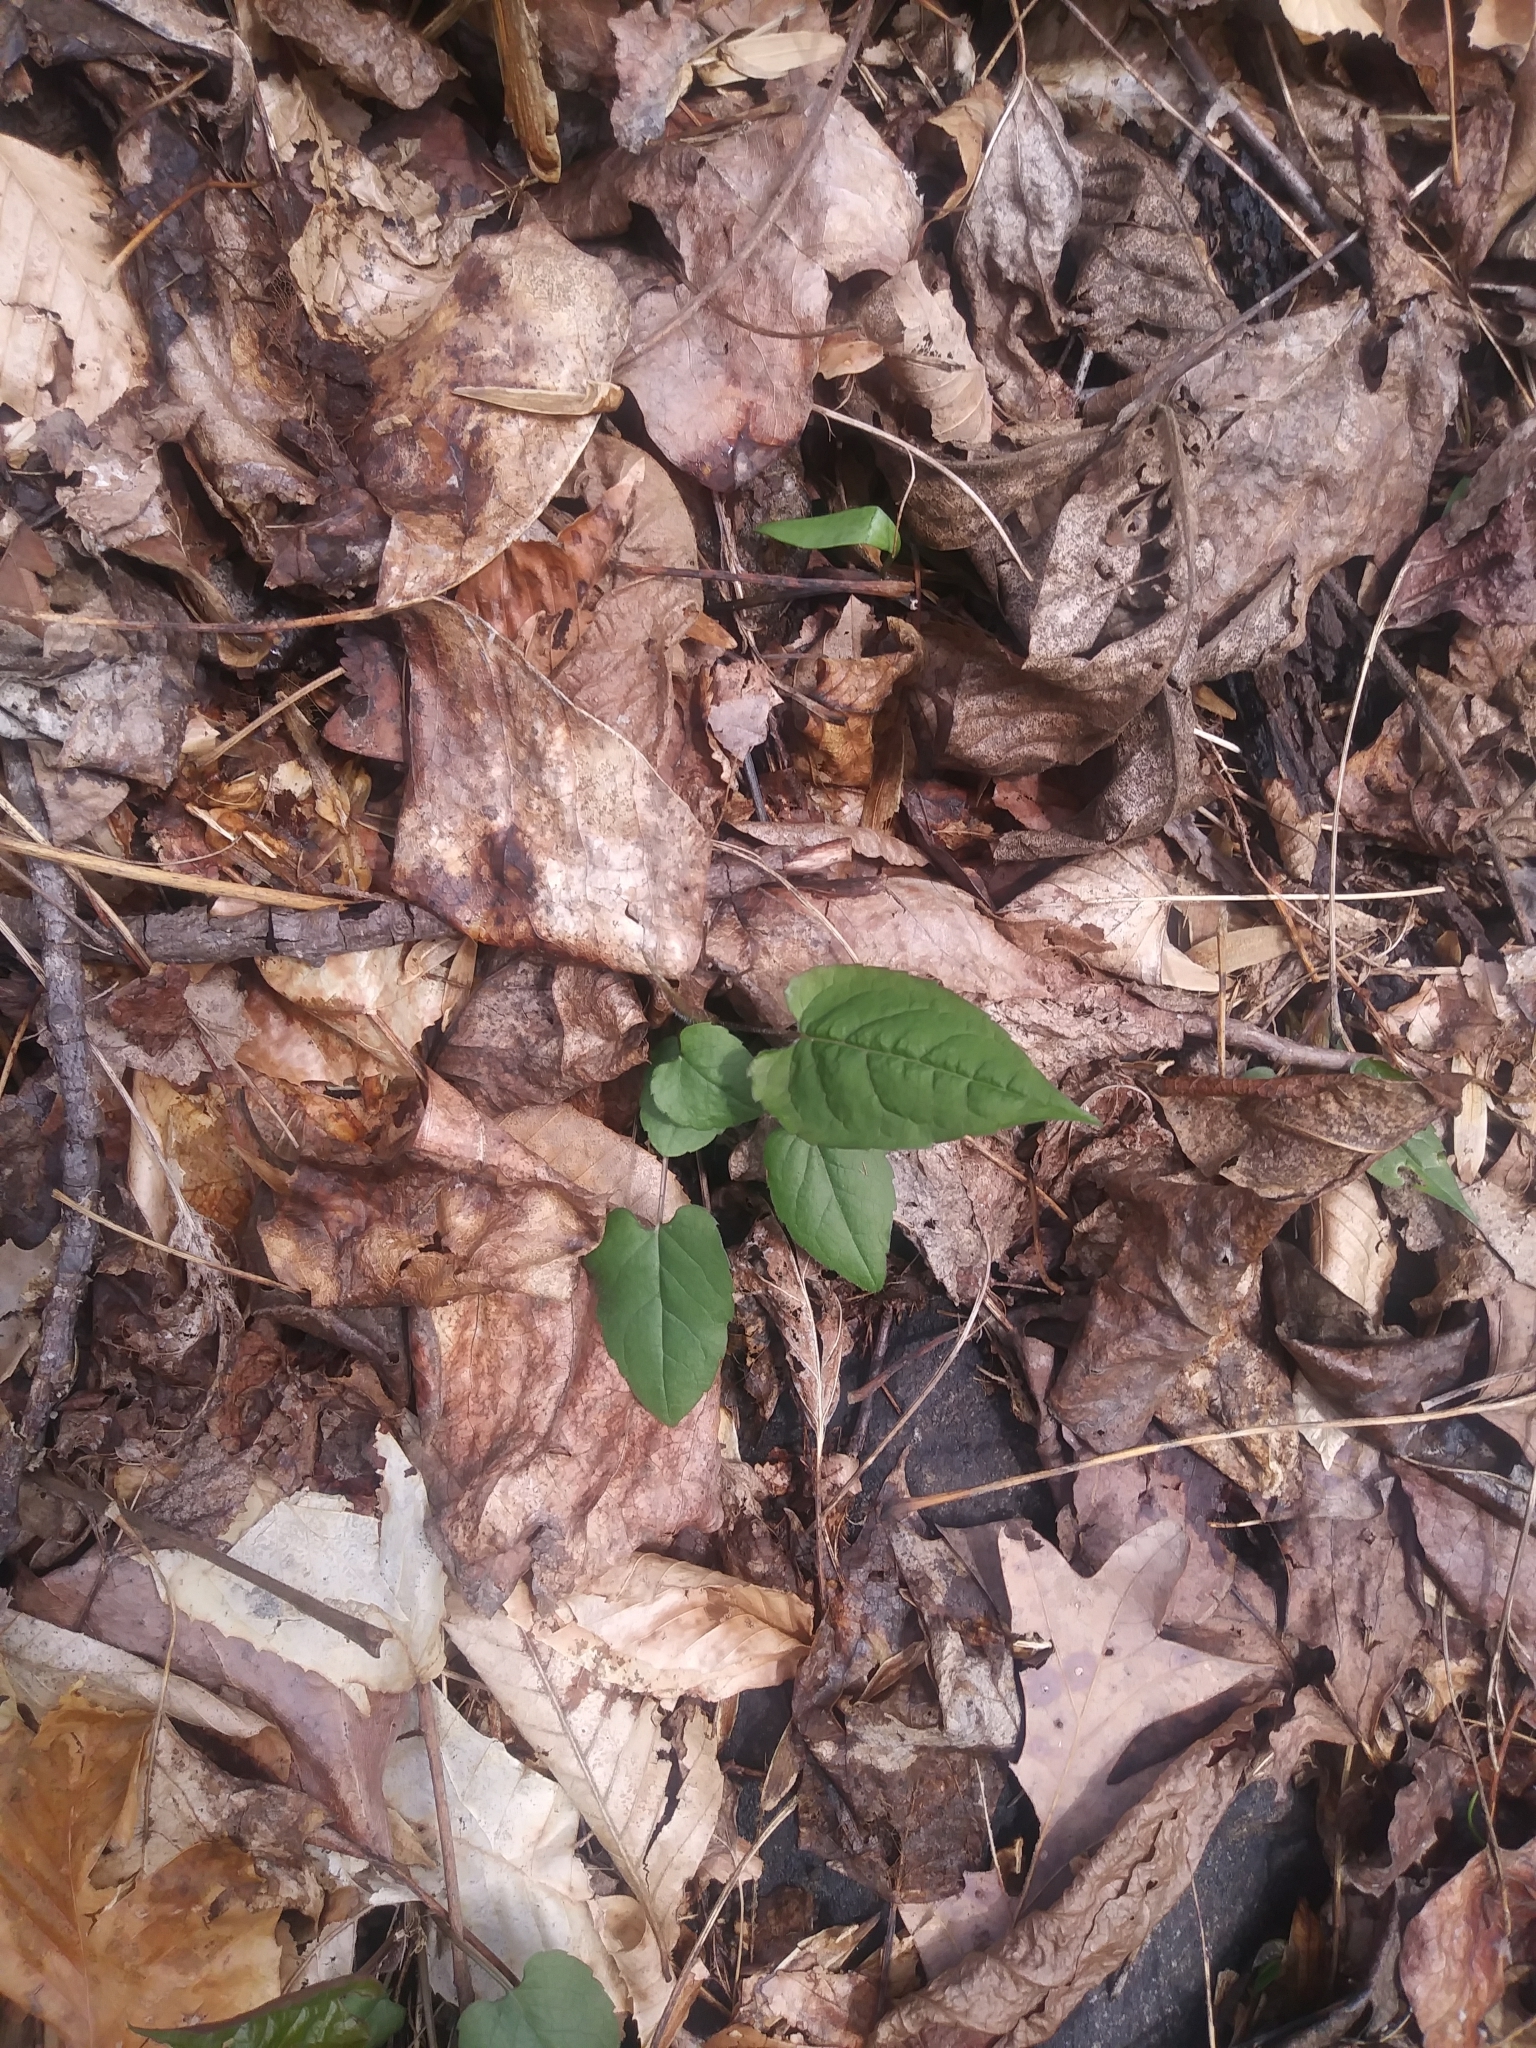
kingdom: Plantae
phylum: Tracheophyta
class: Magnoliopsida
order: Asterales
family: Asteraceae
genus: Eurybia
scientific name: Eurybia divaricata
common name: White wood aster
